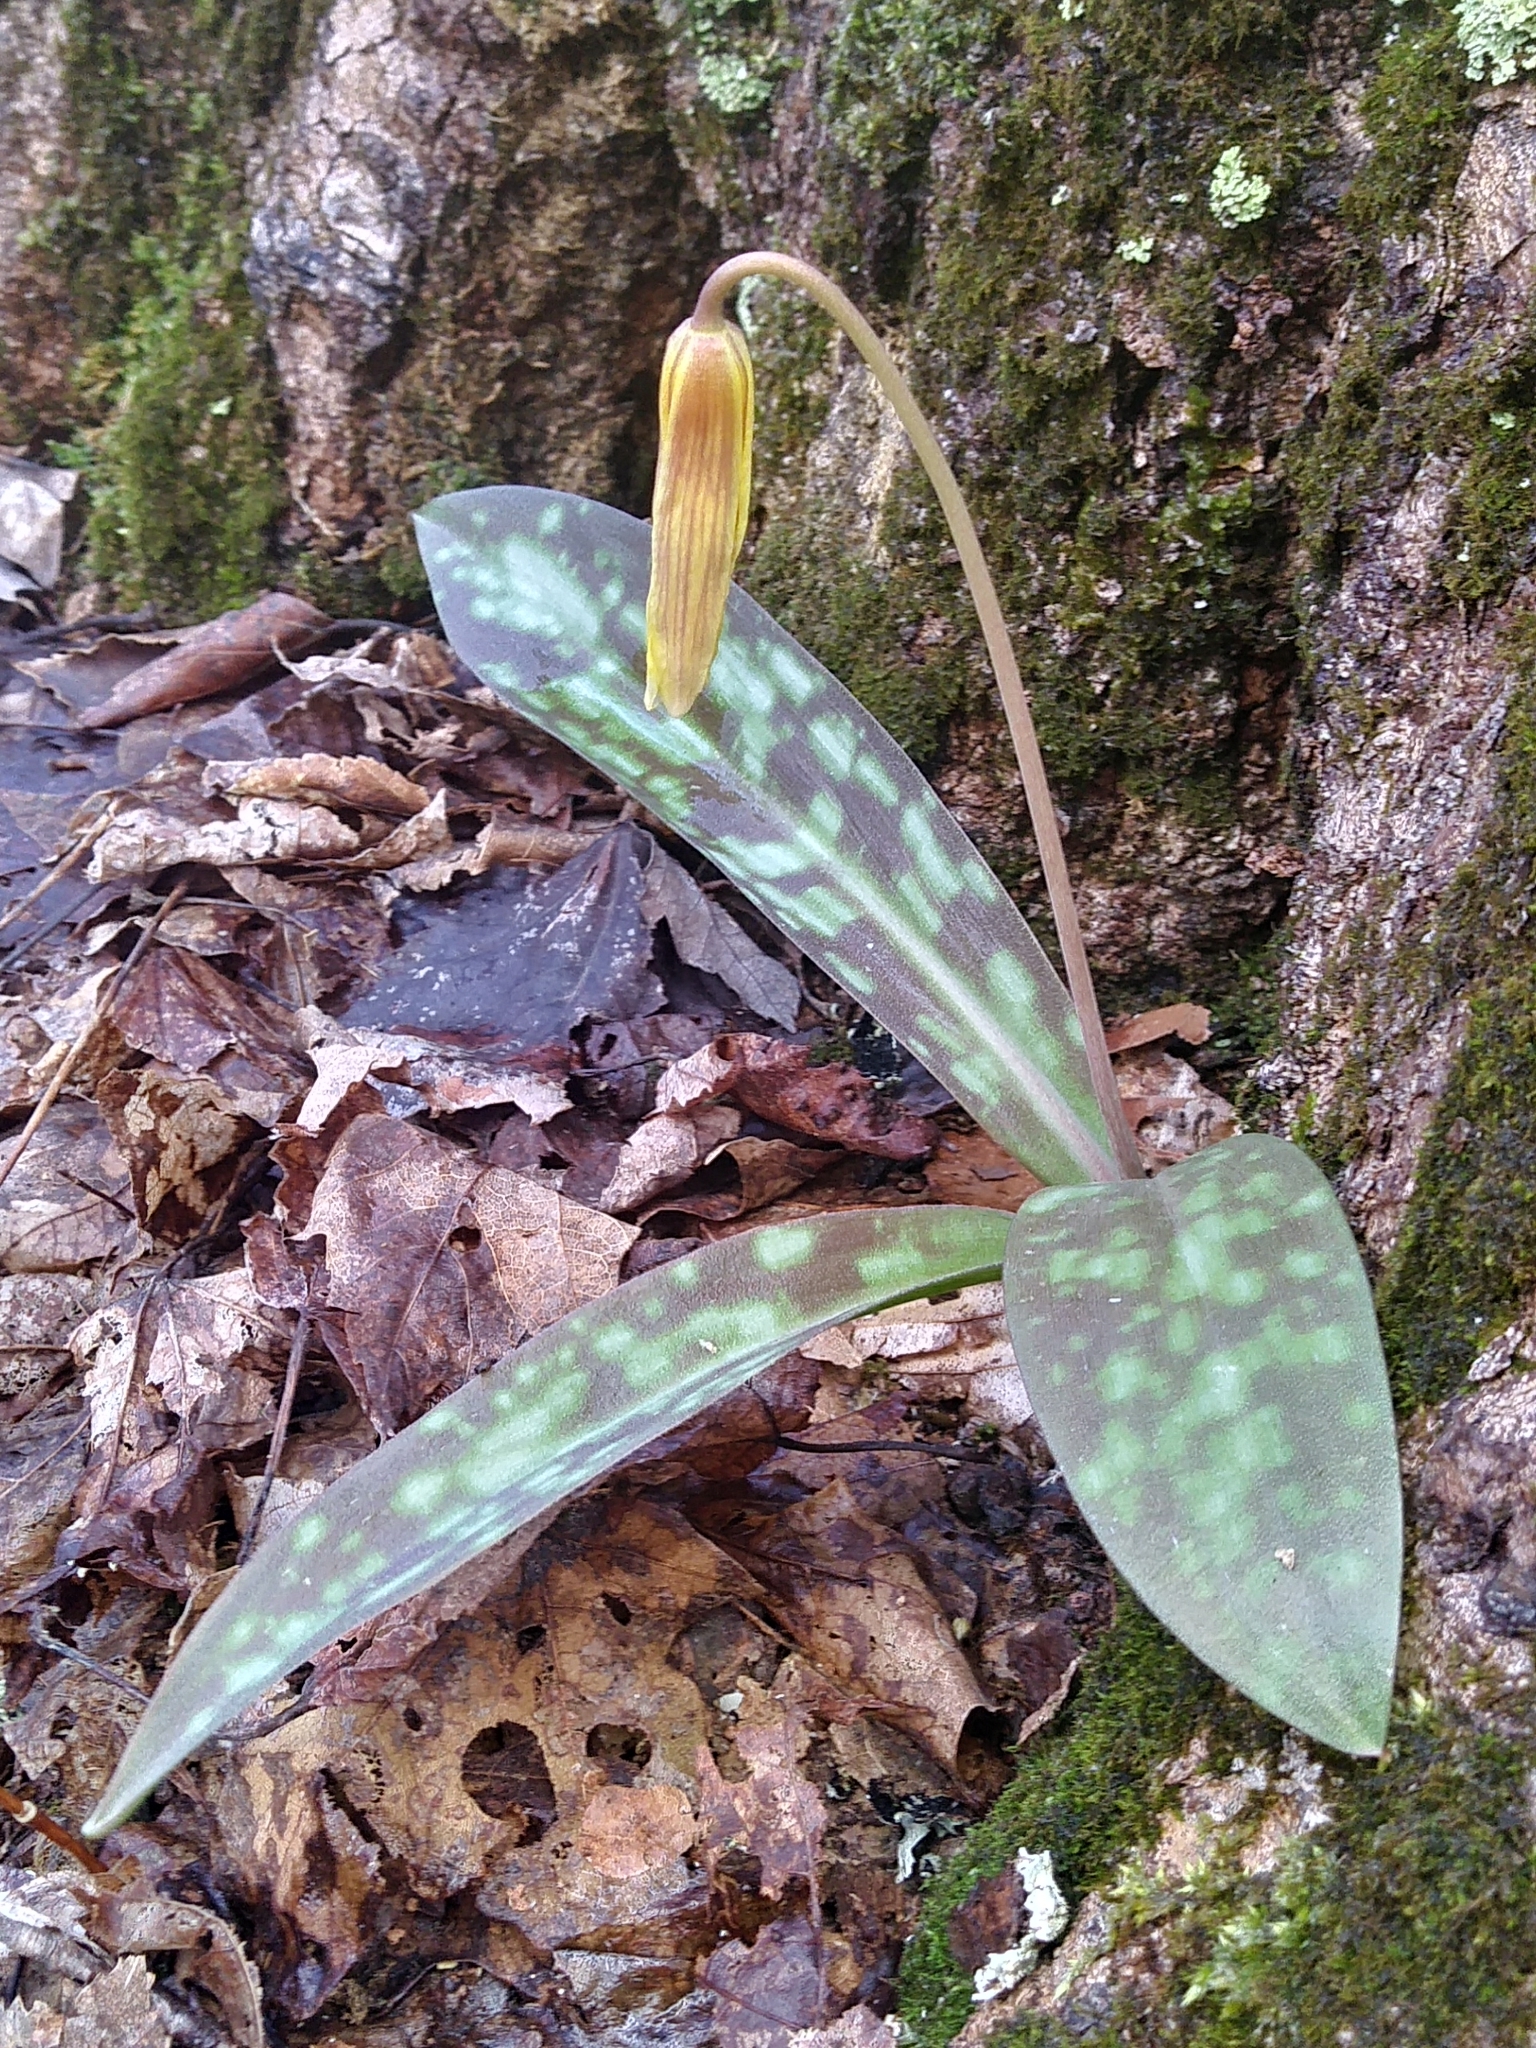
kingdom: Plantae
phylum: Tracheophyta
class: Liliopsida
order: Liliales
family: Liliaceae
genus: Erythronium
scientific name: Erythronium americanum
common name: Yellow adder's-tongue
